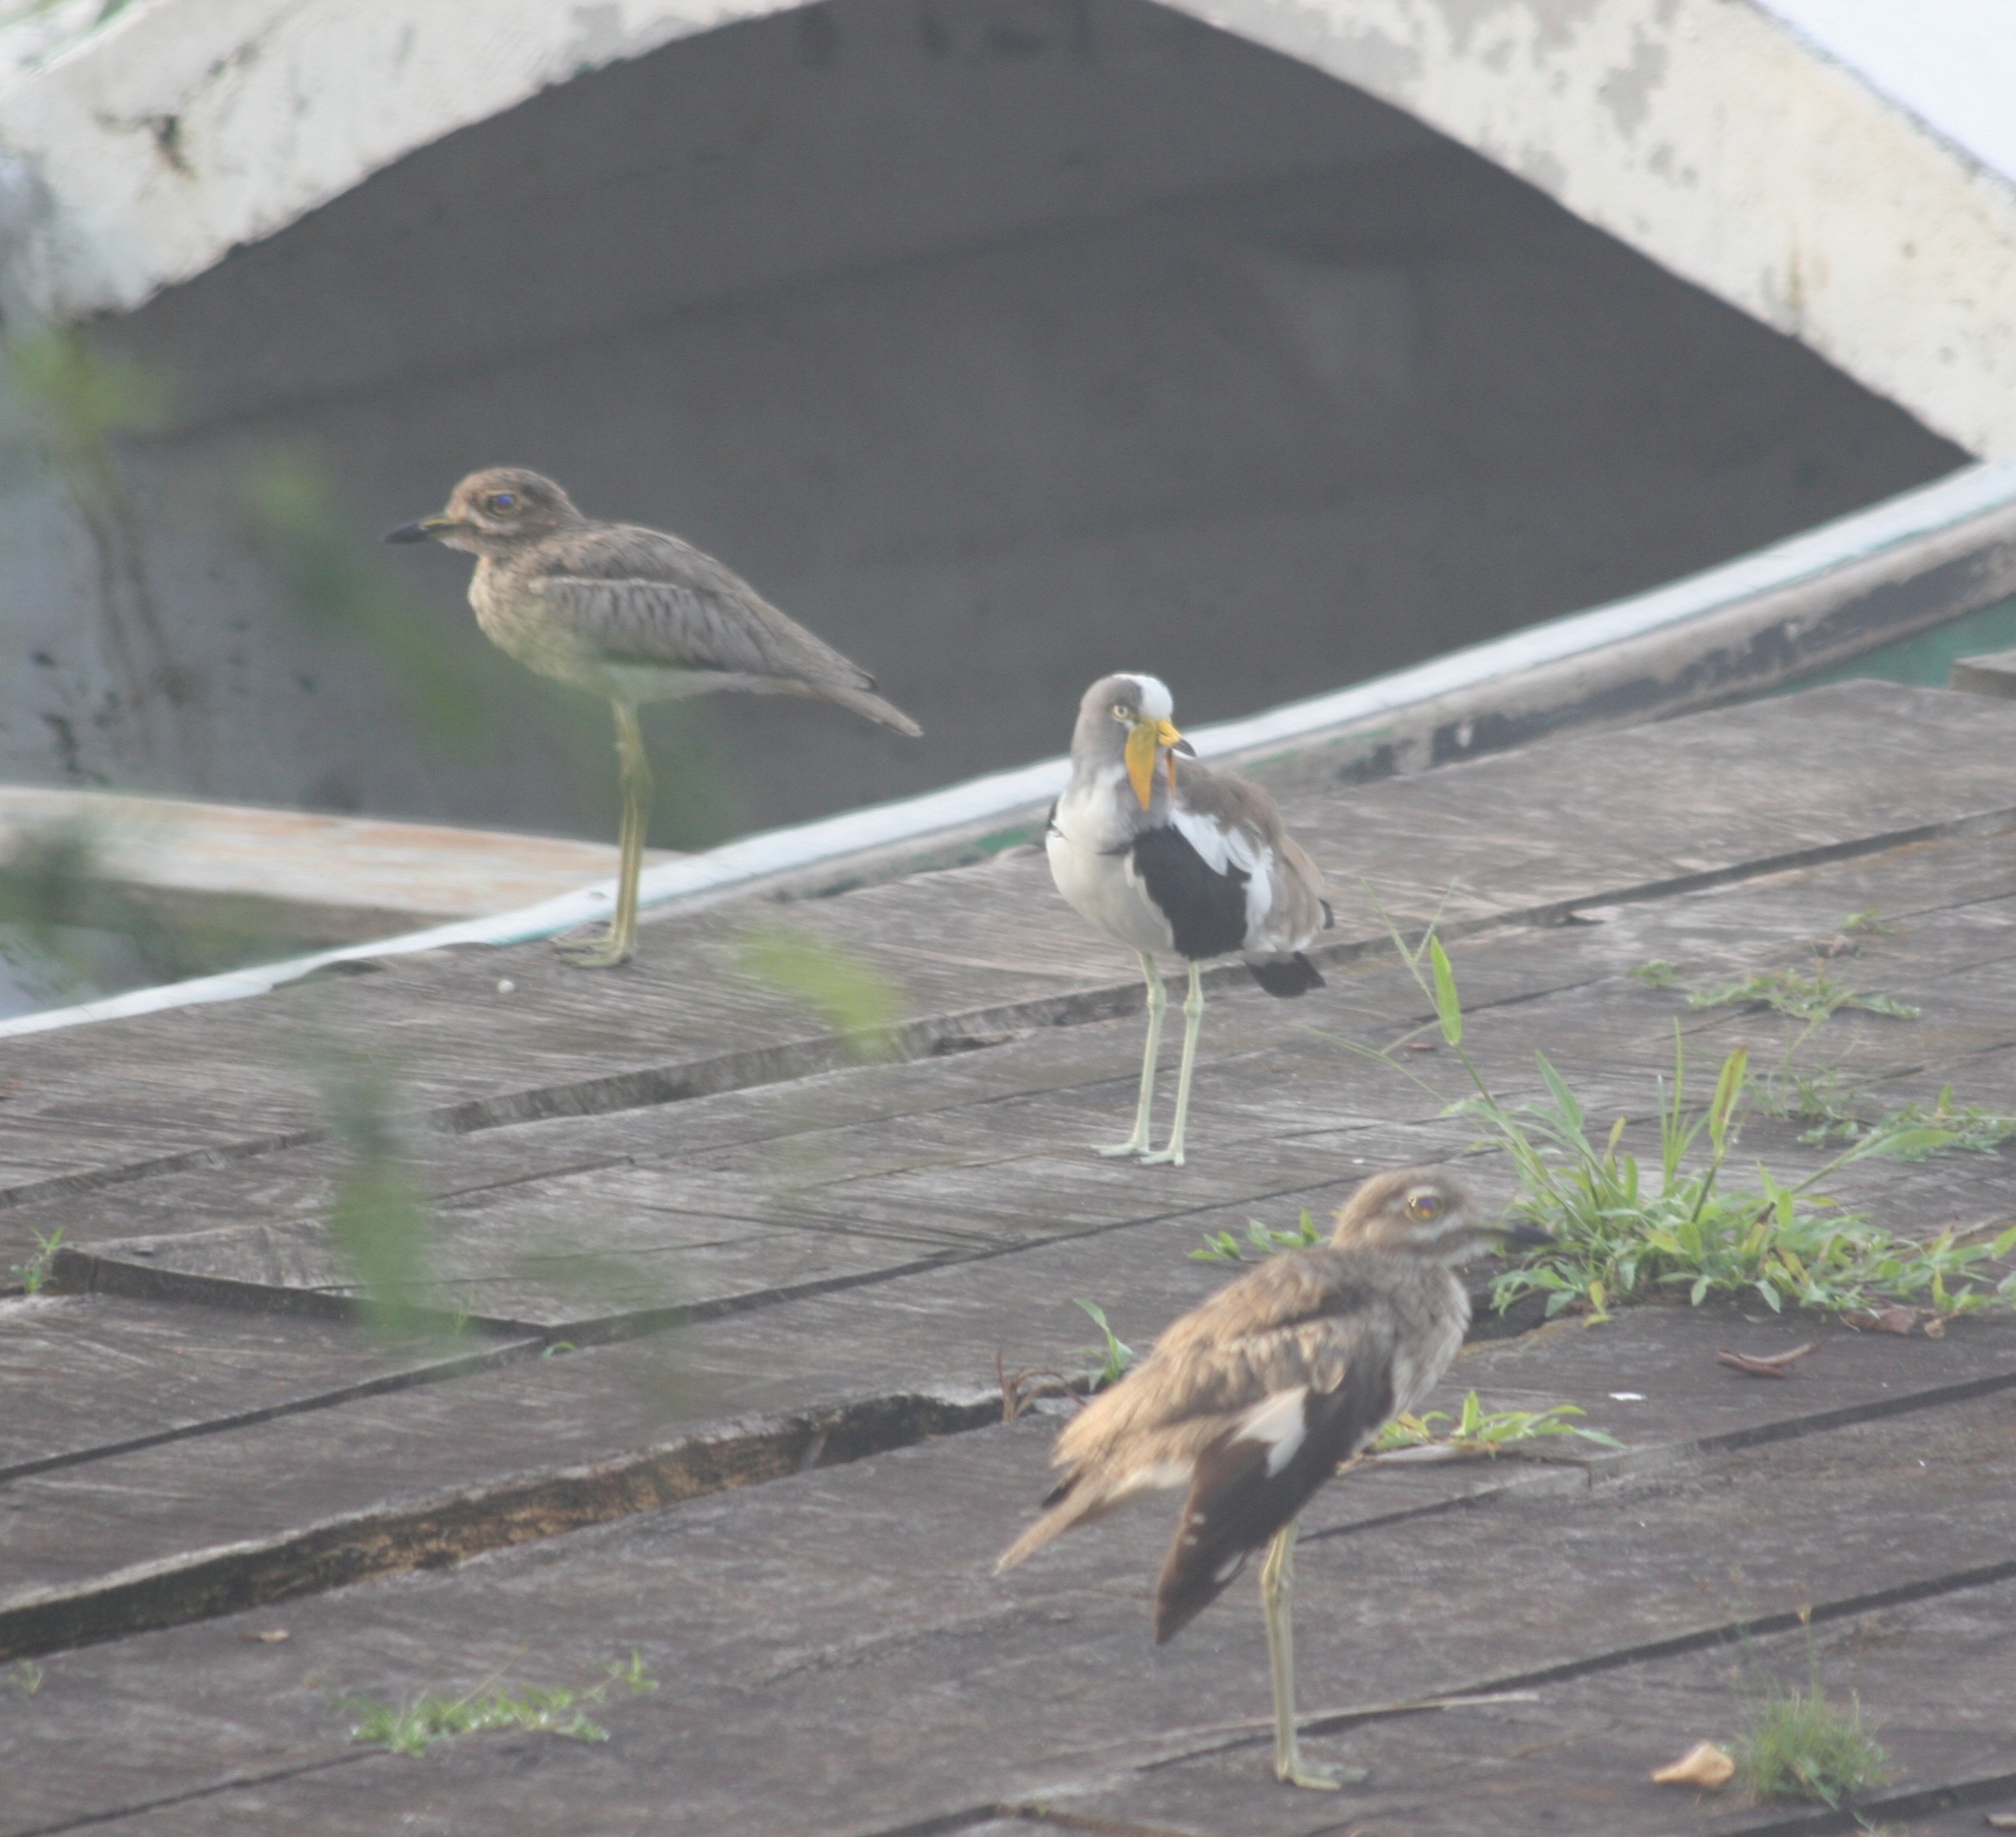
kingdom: Animalia
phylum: Chordata
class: Aves
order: Charadriiformes
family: Charadriidae
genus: Vanellus
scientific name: Vanellus albiceps
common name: White-crowned lapwing
